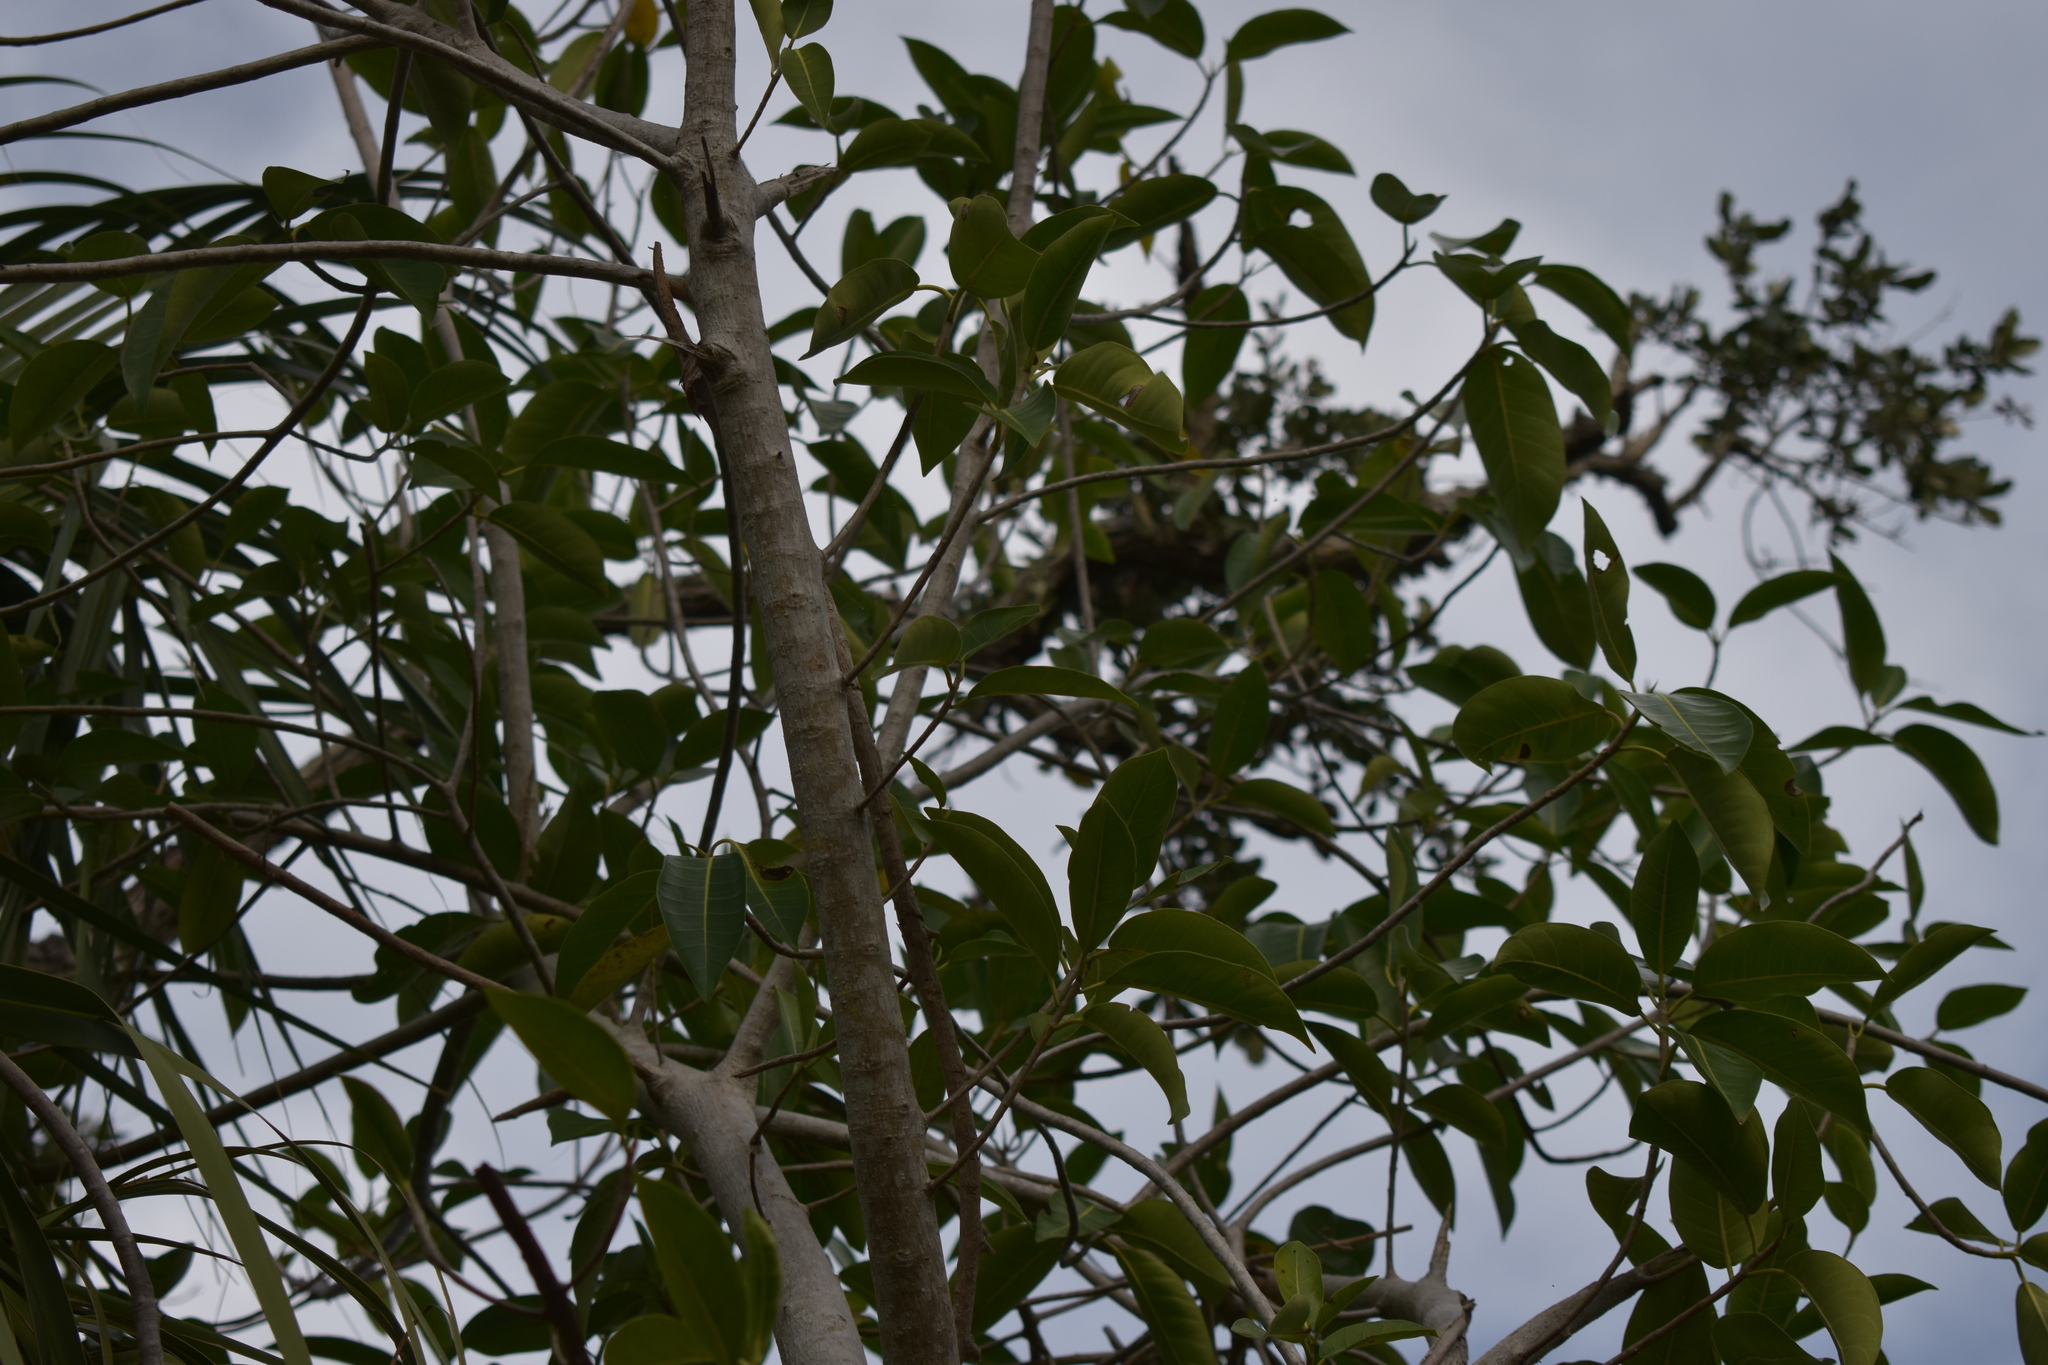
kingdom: Plantae
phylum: Tracheophyta
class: Magnoliopsida
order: Rosales
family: Moraceae
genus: Ficus
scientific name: Ficus aurea
